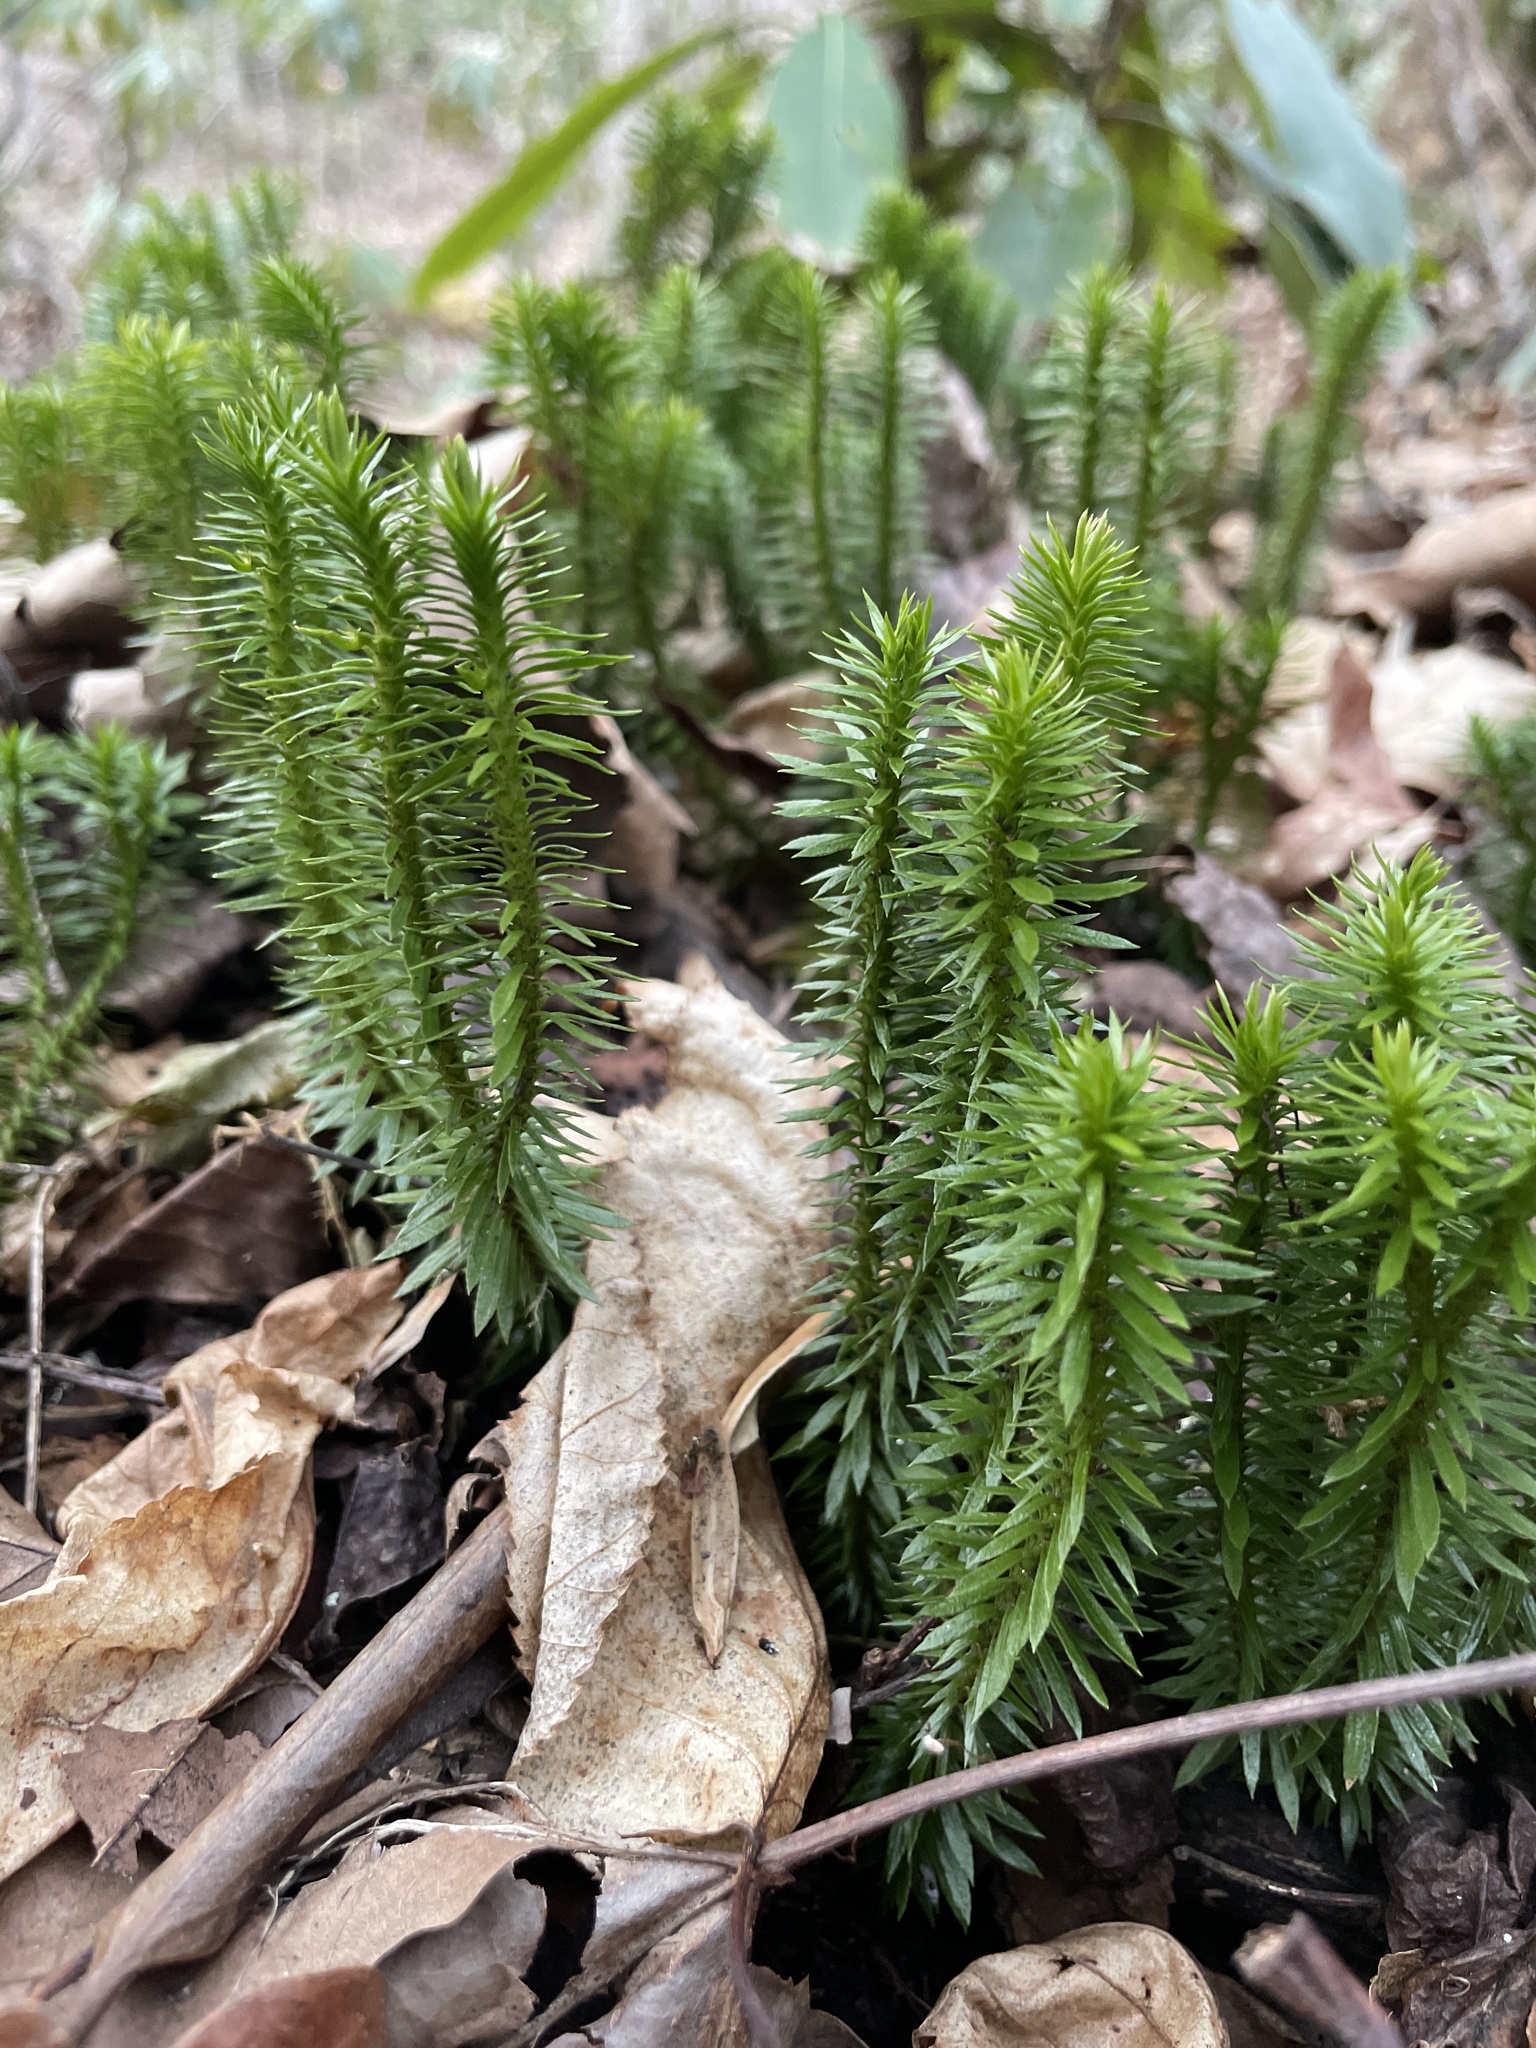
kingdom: Plantae
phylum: Tracheophyta
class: Lycopodiopsida
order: Lycopodiales
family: Lycopodiaceae
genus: Huperzia
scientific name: Huperzia lucidula
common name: Shining clubmoss
